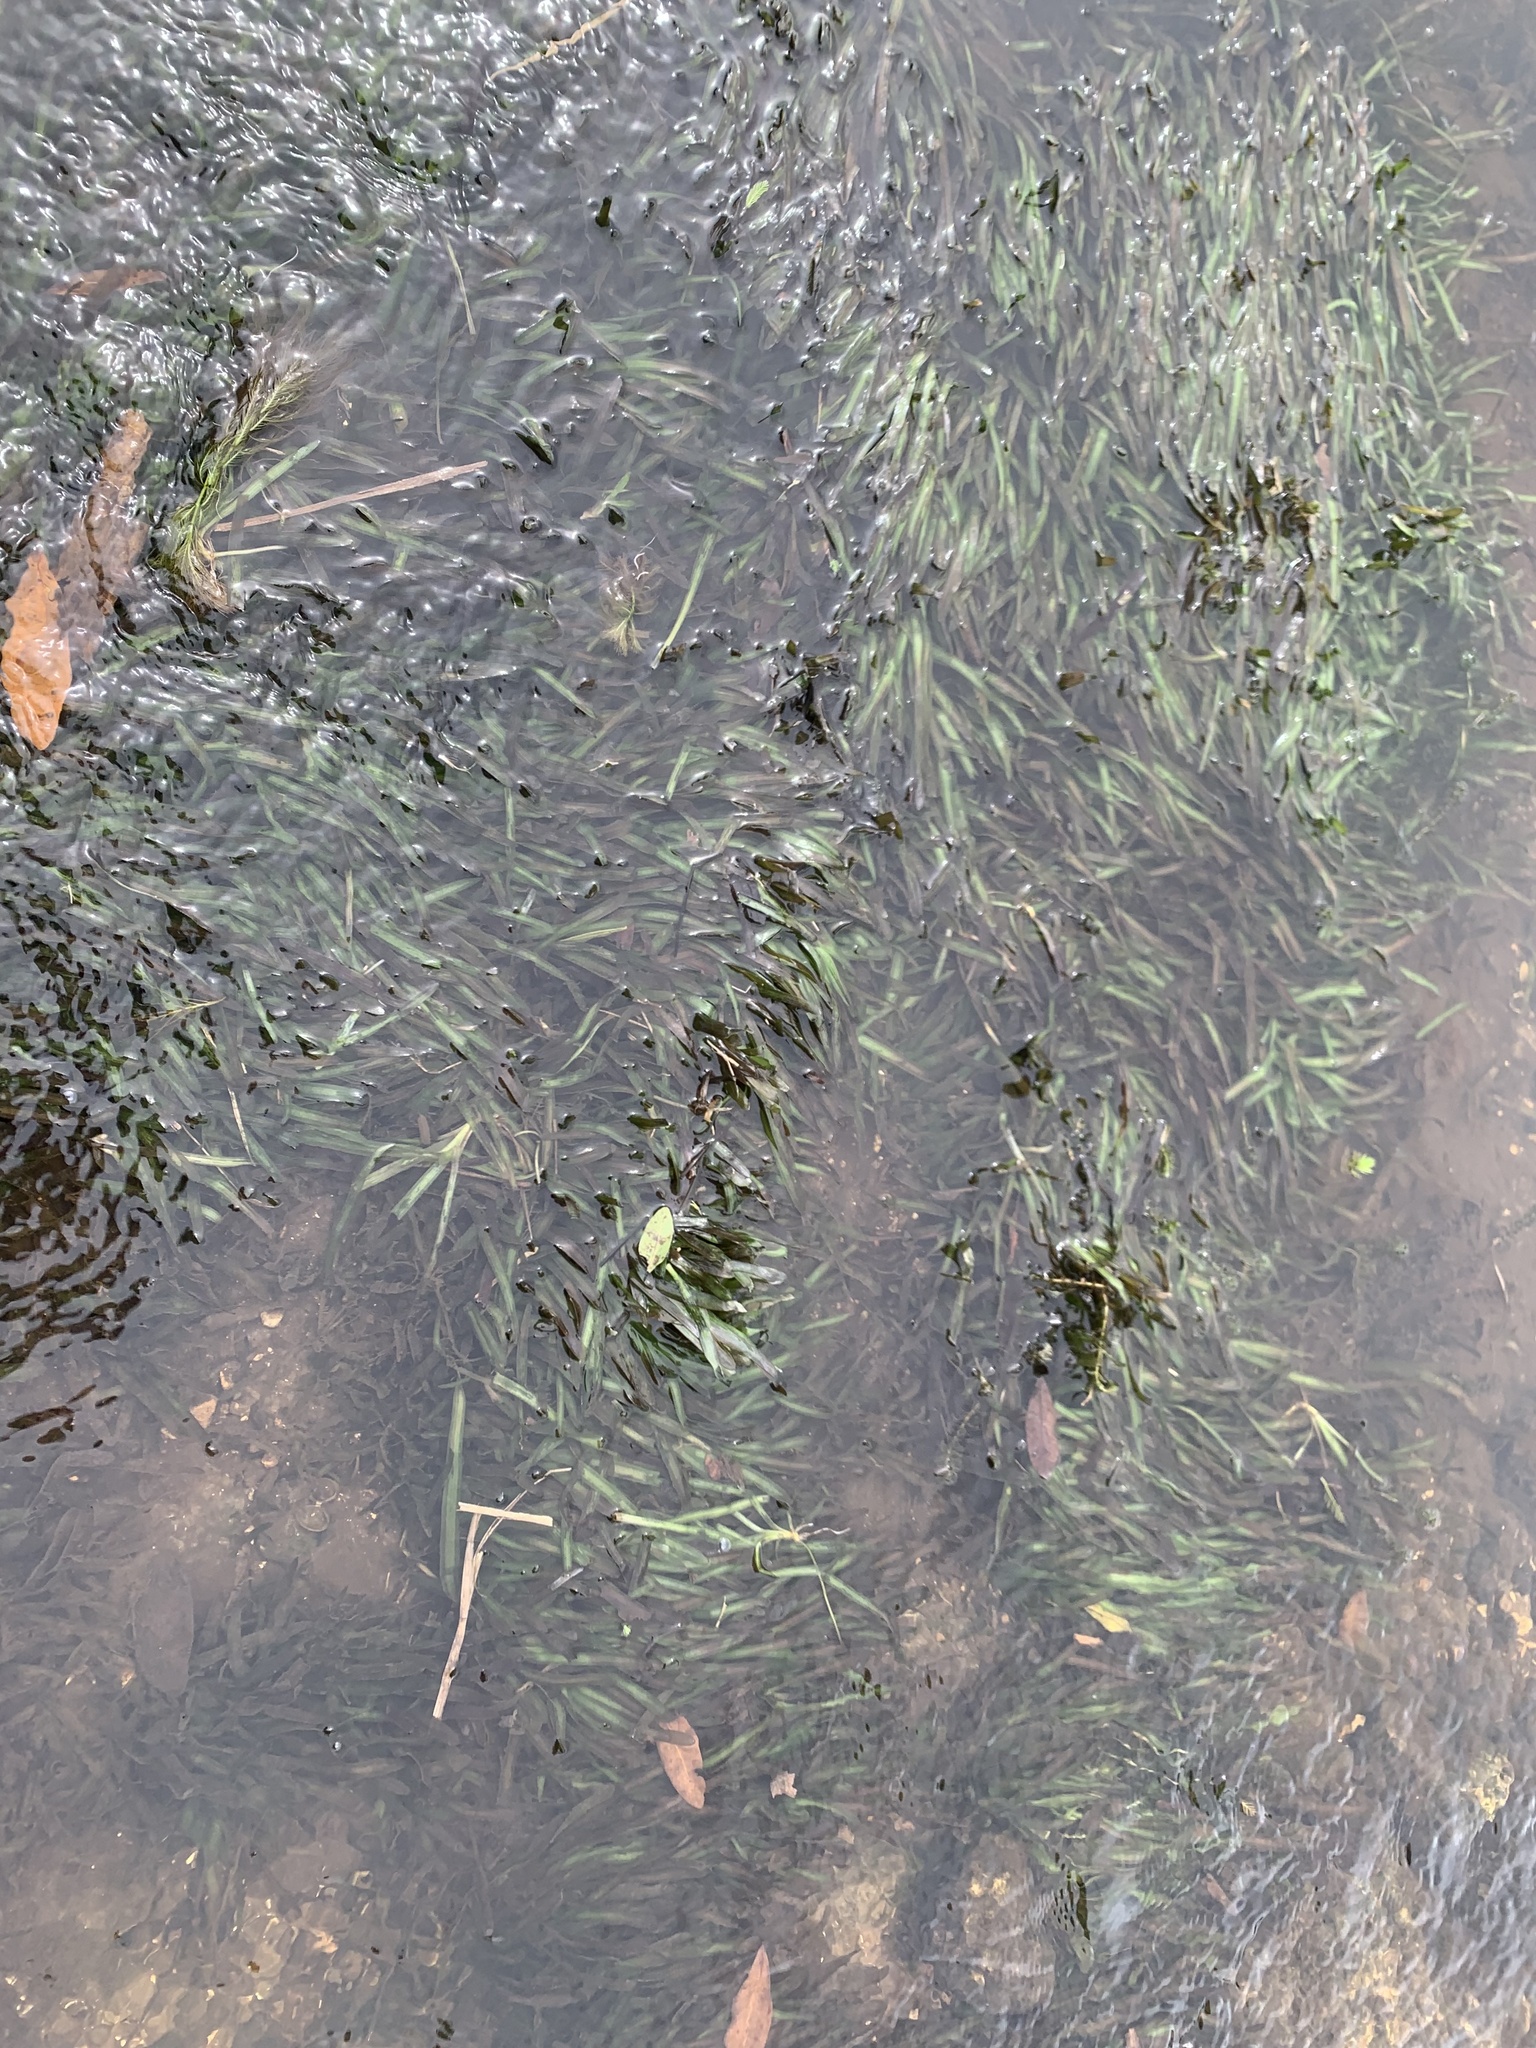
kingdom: Plantae
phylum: Tracheophyta
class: Liliopsida
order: Alismatales
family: Hydrocharitaceae
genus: Vallisneria
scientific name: Vallisneria americana
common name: American eelgrass
